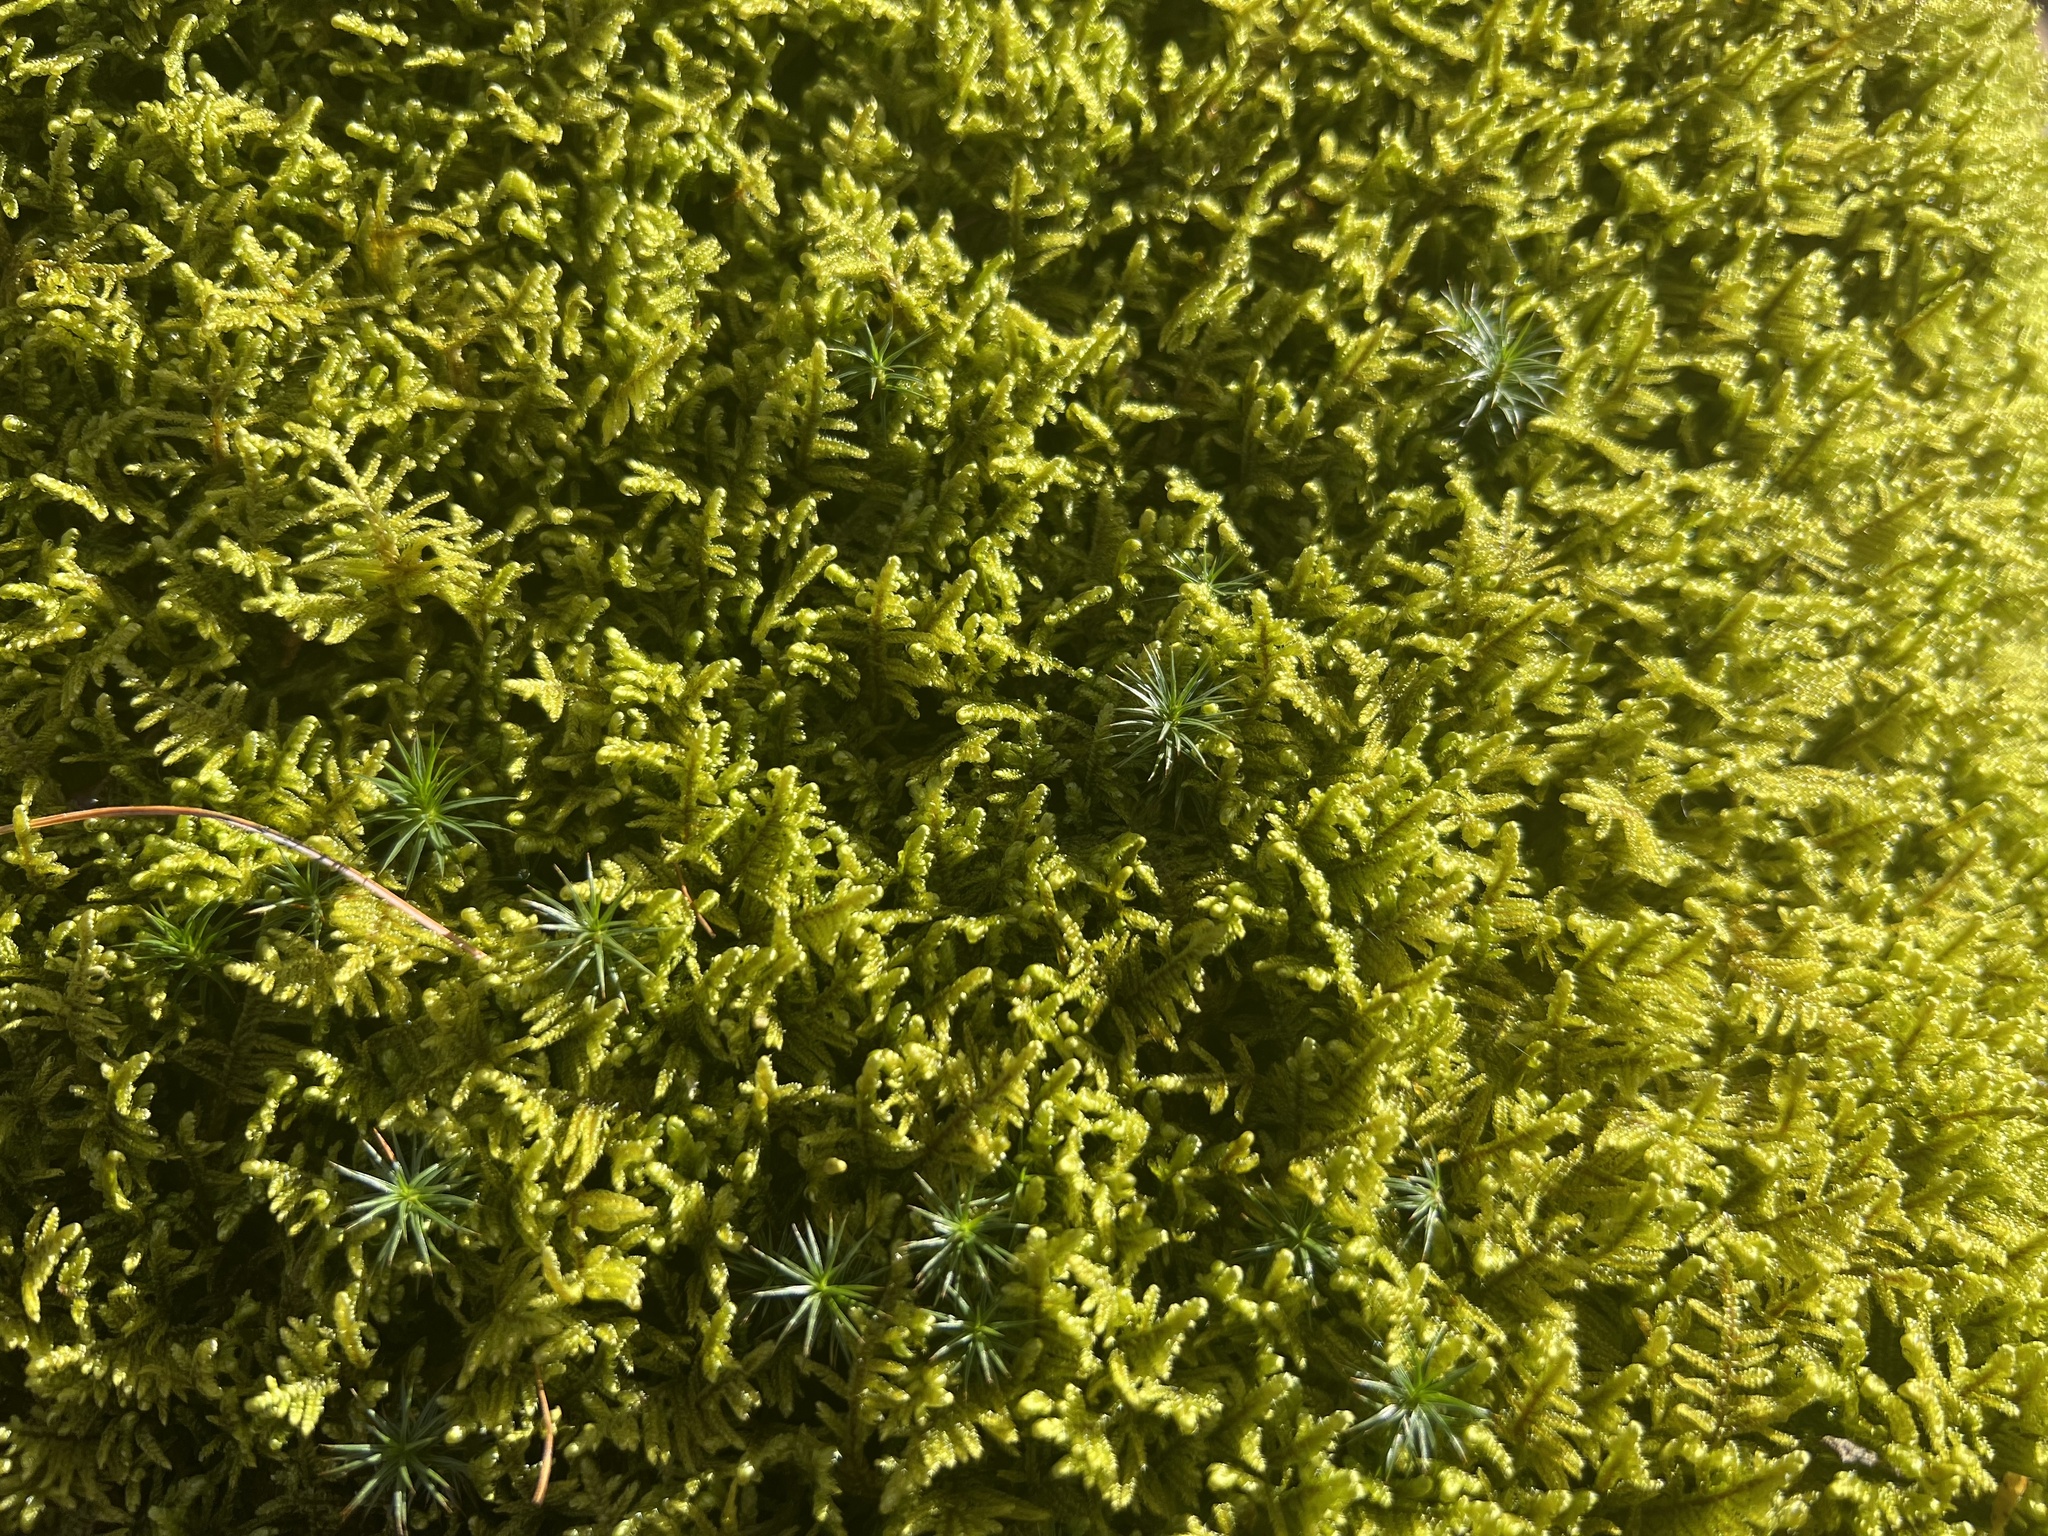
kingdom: Plantae
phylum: Bryophyta
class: Bryopsida
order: Hypnales
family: Callicladiaceae
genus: Callicladium
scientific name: Callicladium imponens
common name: Brocade moss
